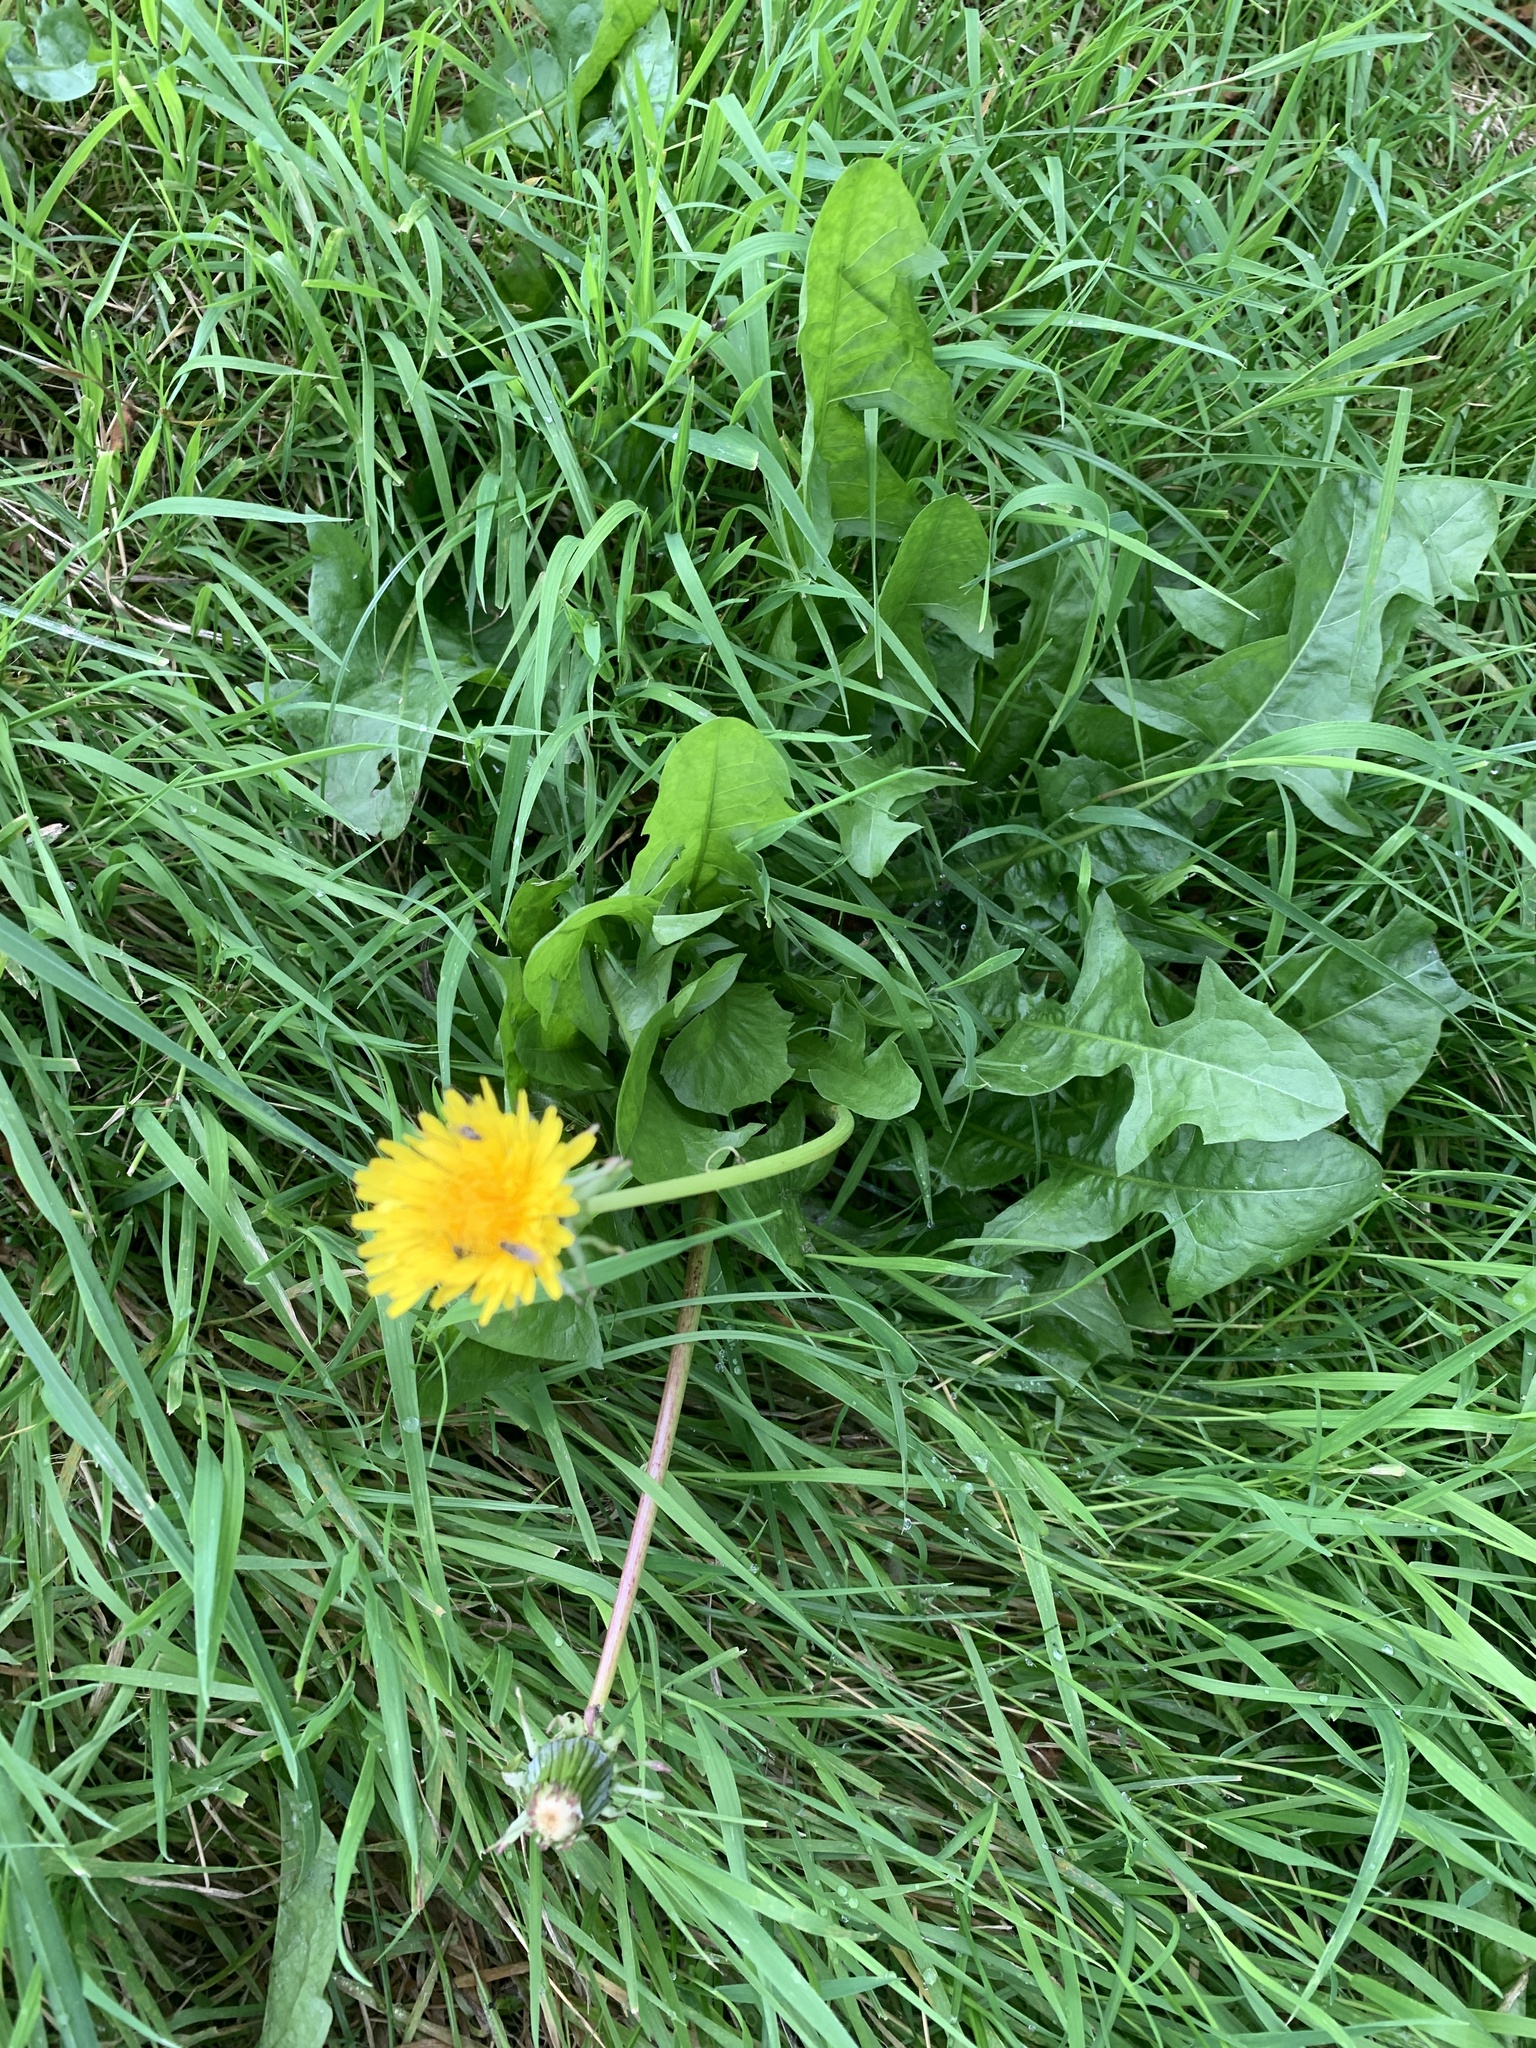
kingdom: Plantae
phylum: Tracheophyta
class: Magnoliopsida
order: Asterales
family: Asteraceae
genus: Taraxacum
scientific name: Taraxacum officinale
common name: Common dandelion
